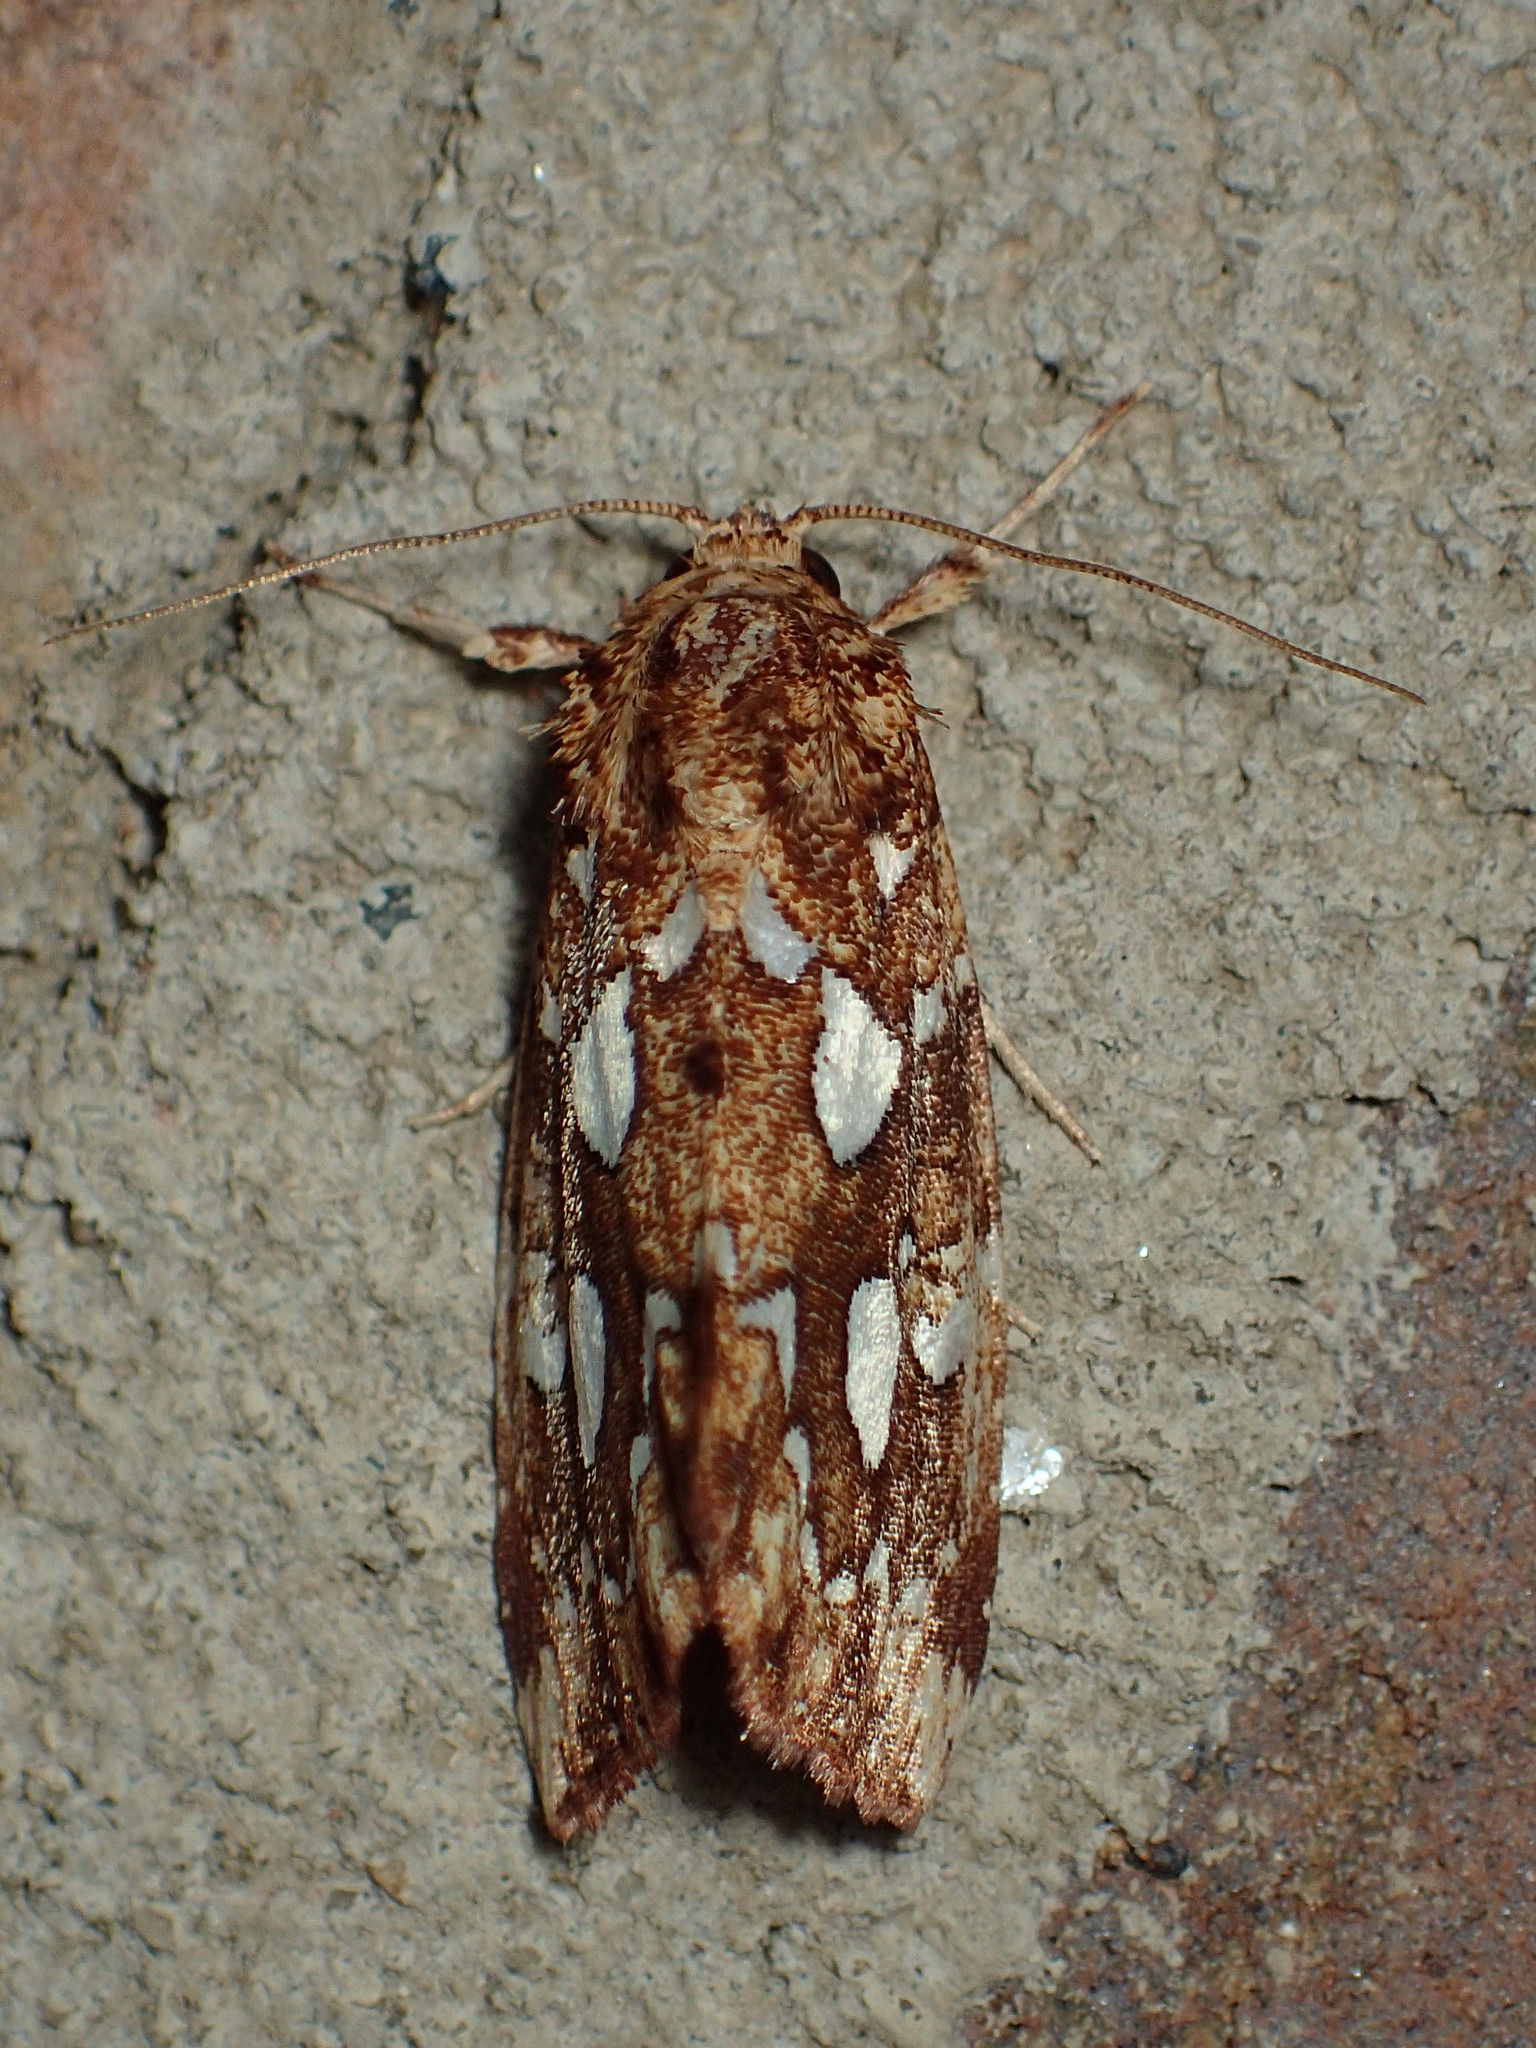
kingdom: Animalia
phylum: Arthropoda
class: Insecta
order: Lepidoptera
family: Noctuidae
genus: Callopistria
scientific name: Callopistria cordata
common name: Silver-spotted fern moth
